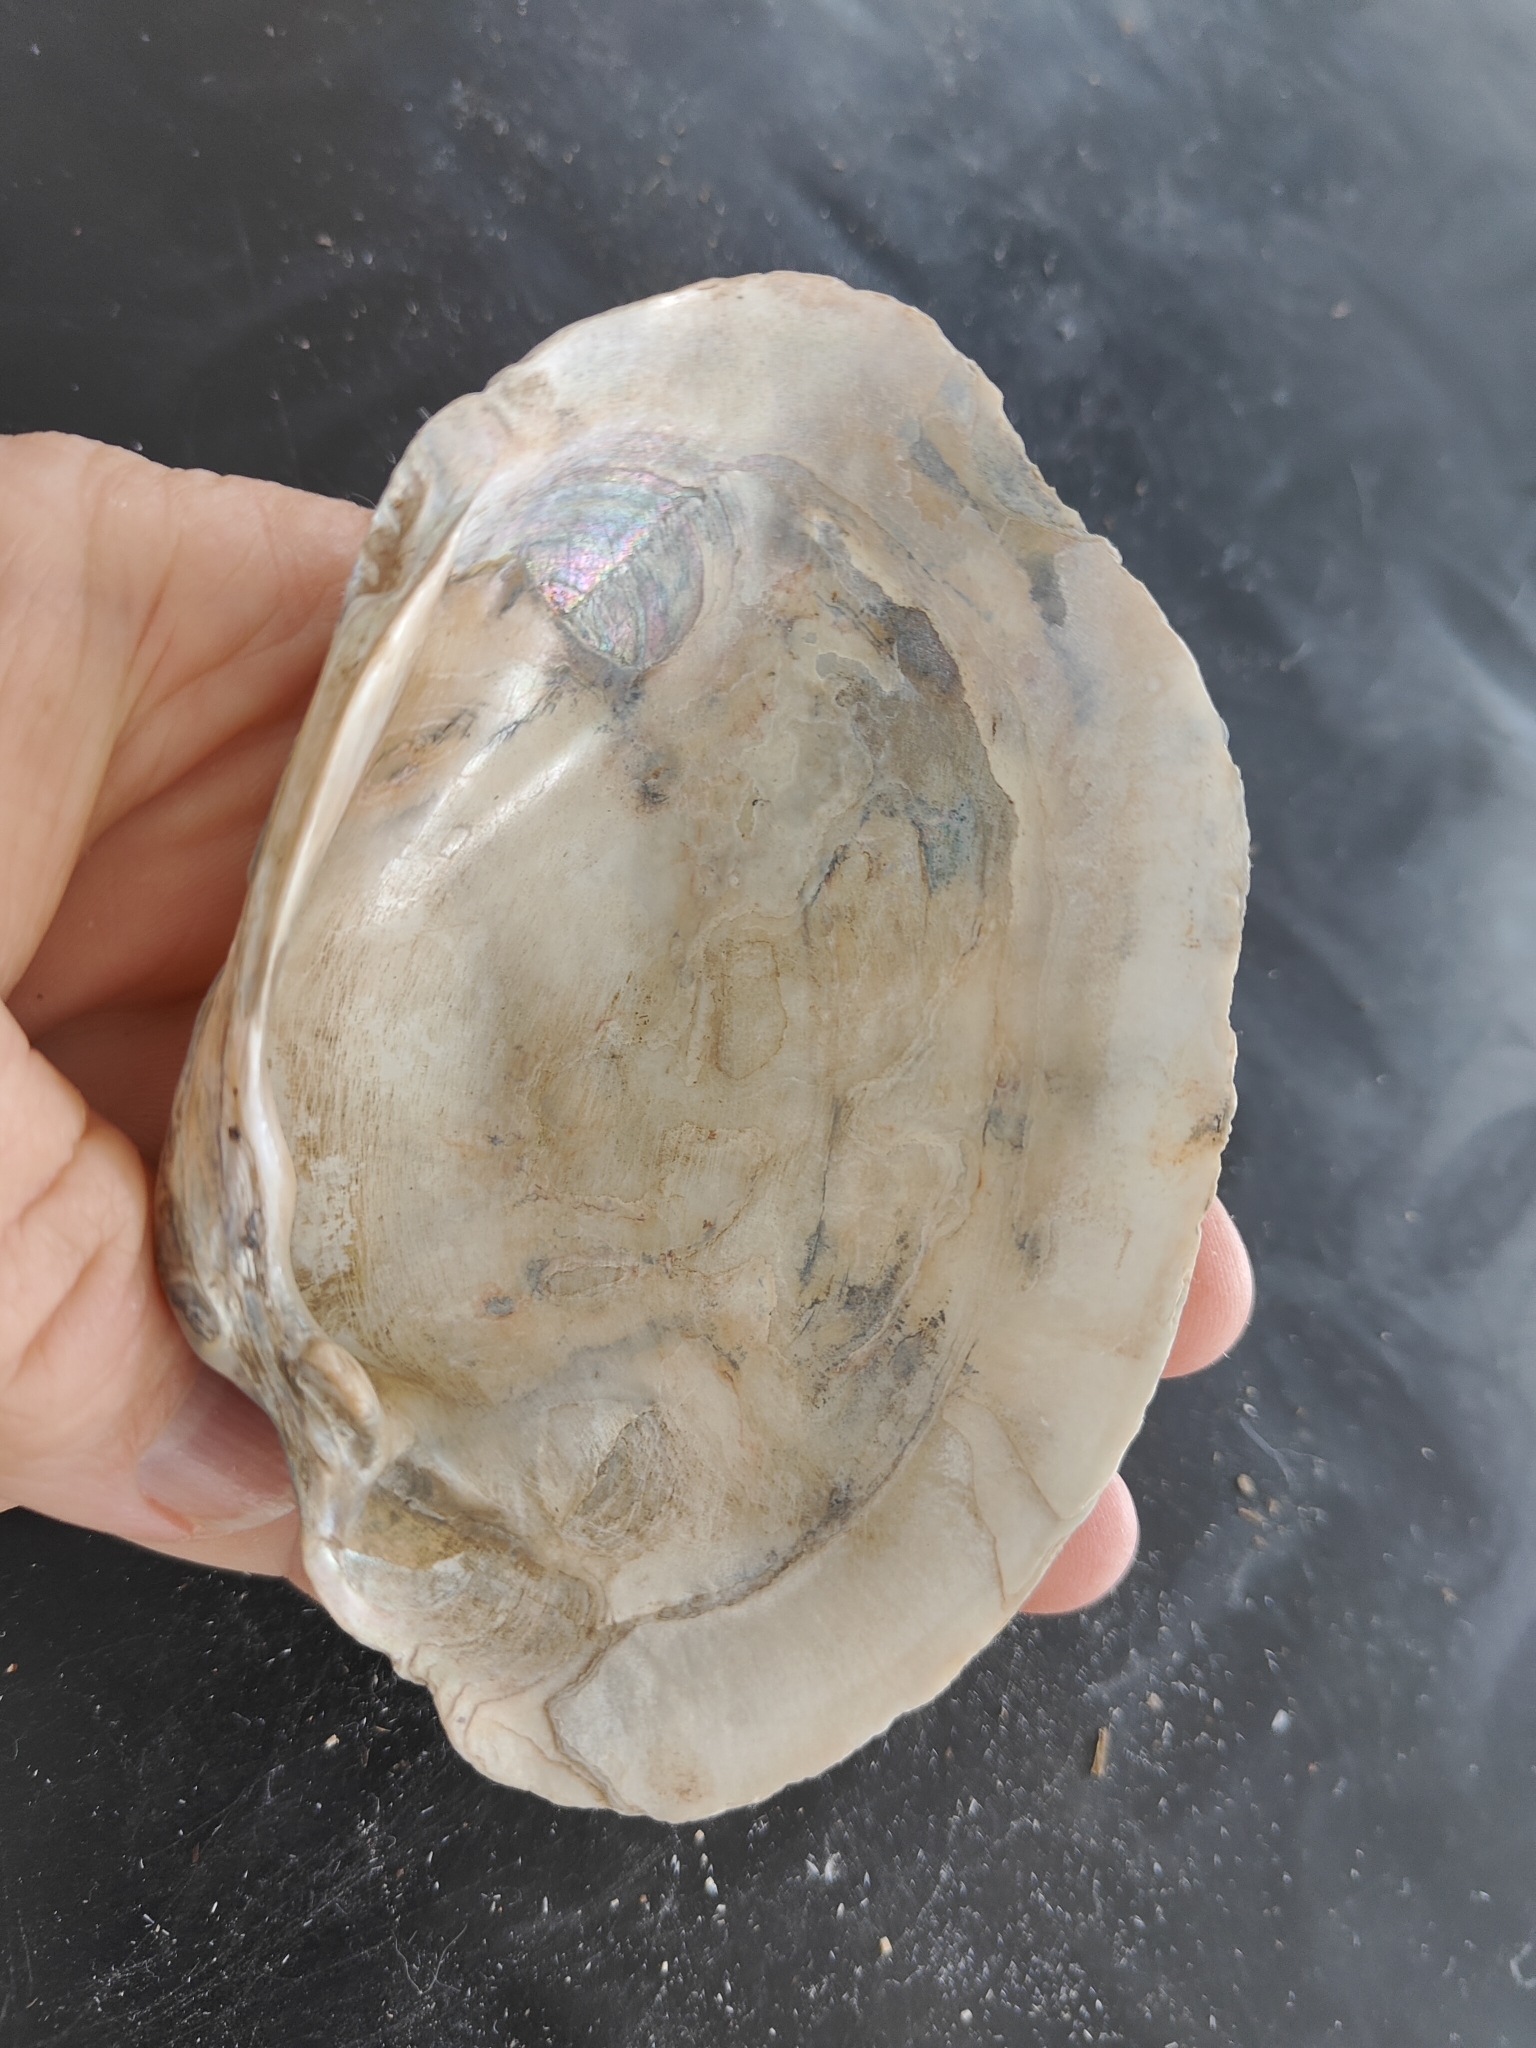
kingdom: Animalia
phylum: Mollusca
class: Bivalvia
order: Unionida
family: Unionidae
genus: Lampsilis
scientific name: Lampsilis cardium
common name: Plain pocketbook
